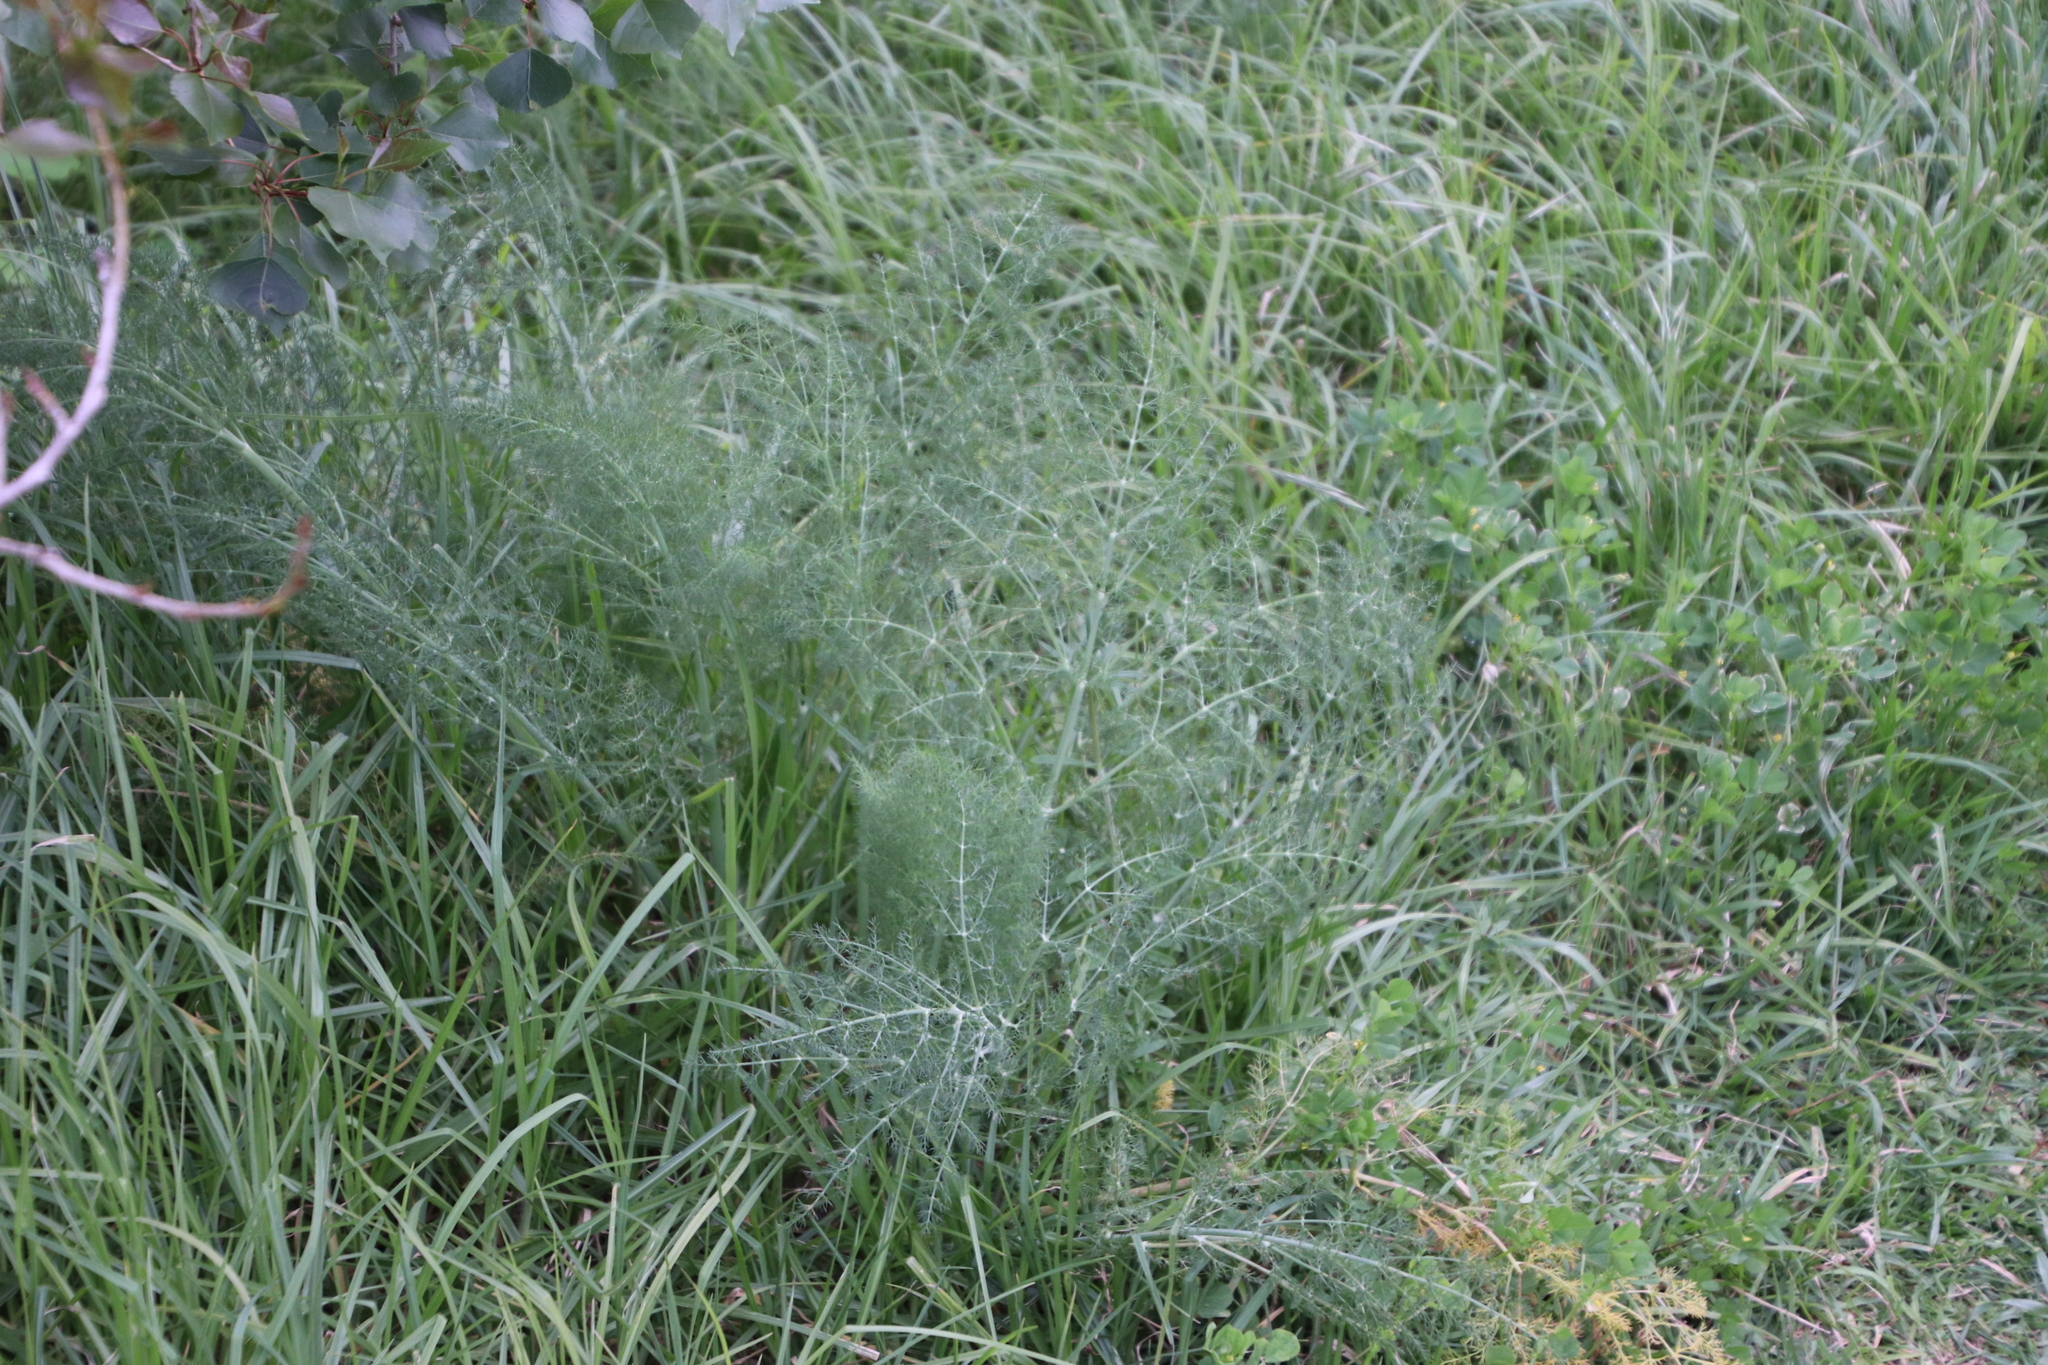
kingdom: Plantae
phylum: Tracheophyta
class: Magnoliopsida
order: Apiales
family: Apiaceae
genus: Foeniculum
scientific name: Foeniculum vulgare
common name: Fennel
